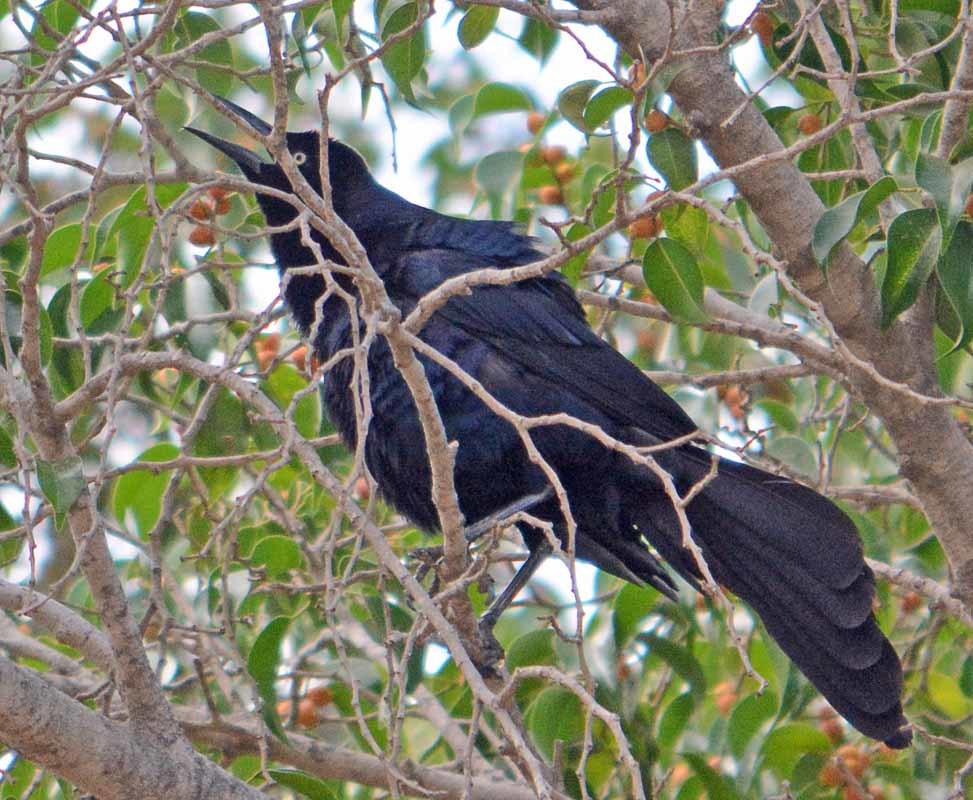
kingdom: Animalia
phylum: Chordata
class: Aves
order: Passeriformes
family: Icteridae
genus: Quiscalus
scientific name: Quiscalus mexicanus
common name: Great-tailed grackle
